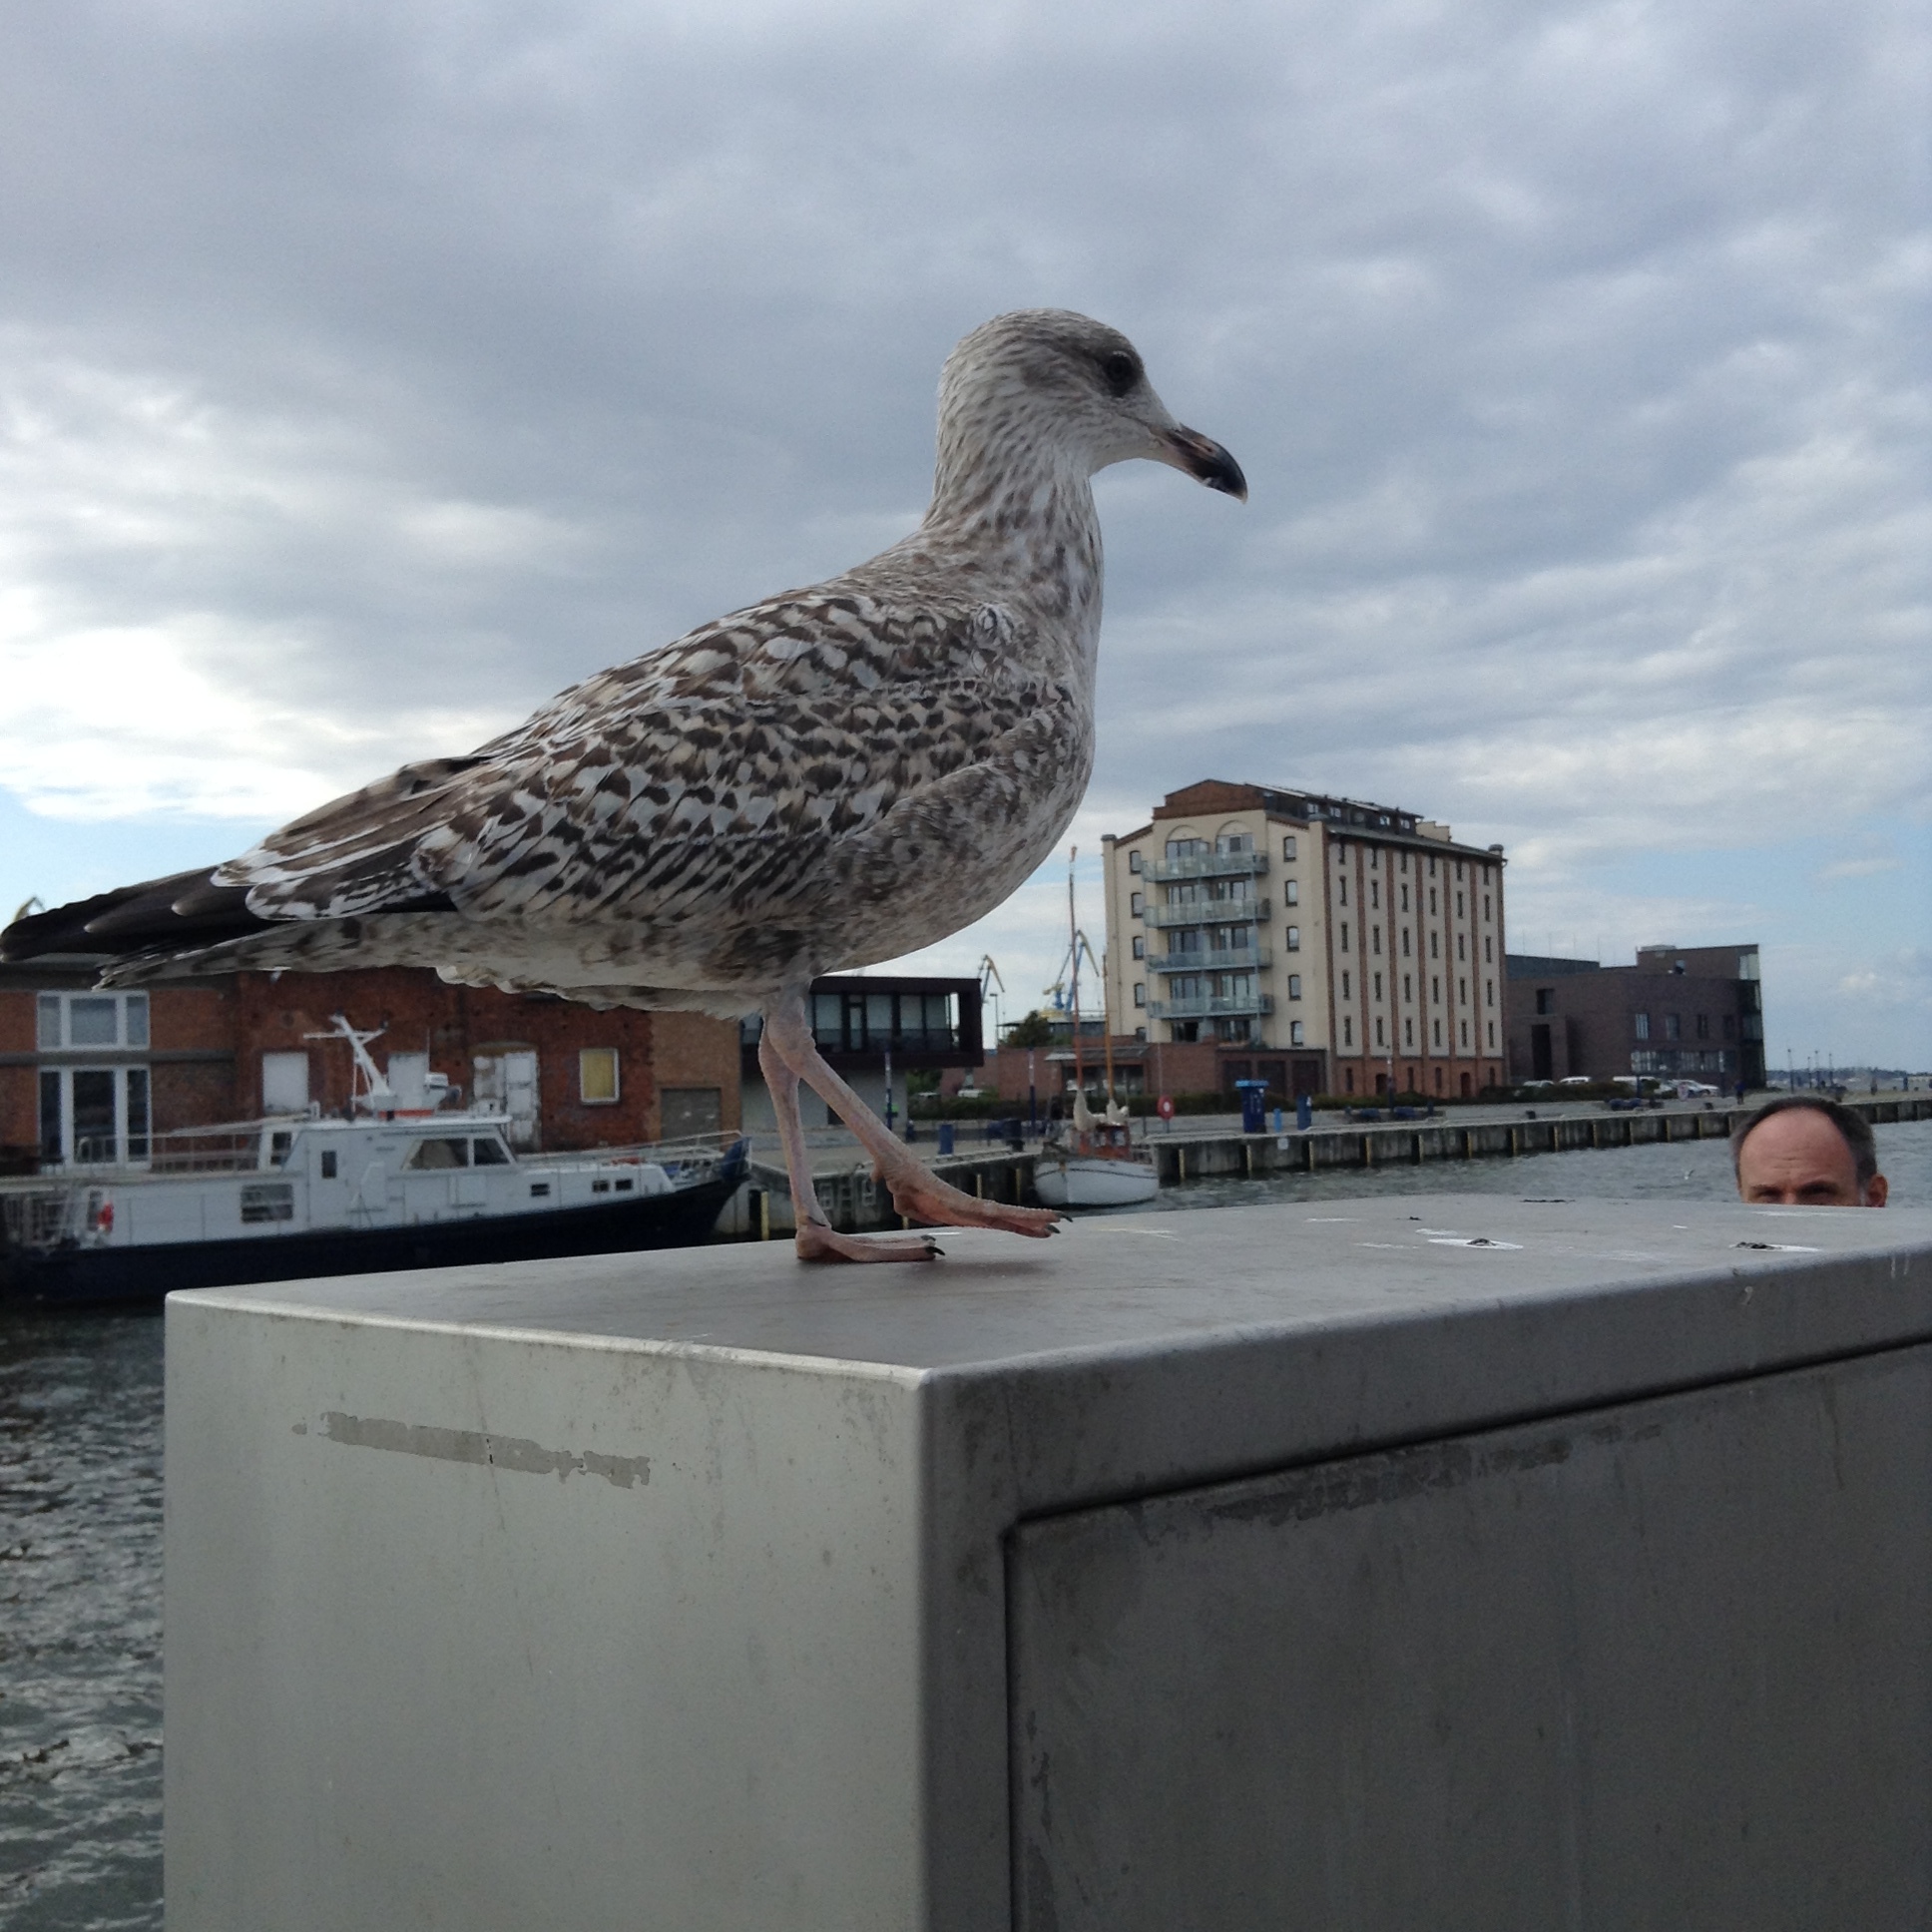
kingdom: Animalia
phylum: Chordata
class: Aves
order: Charadriiformes
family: Laridae
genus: Larus
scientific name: Larus argentatus
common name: Herring gull
